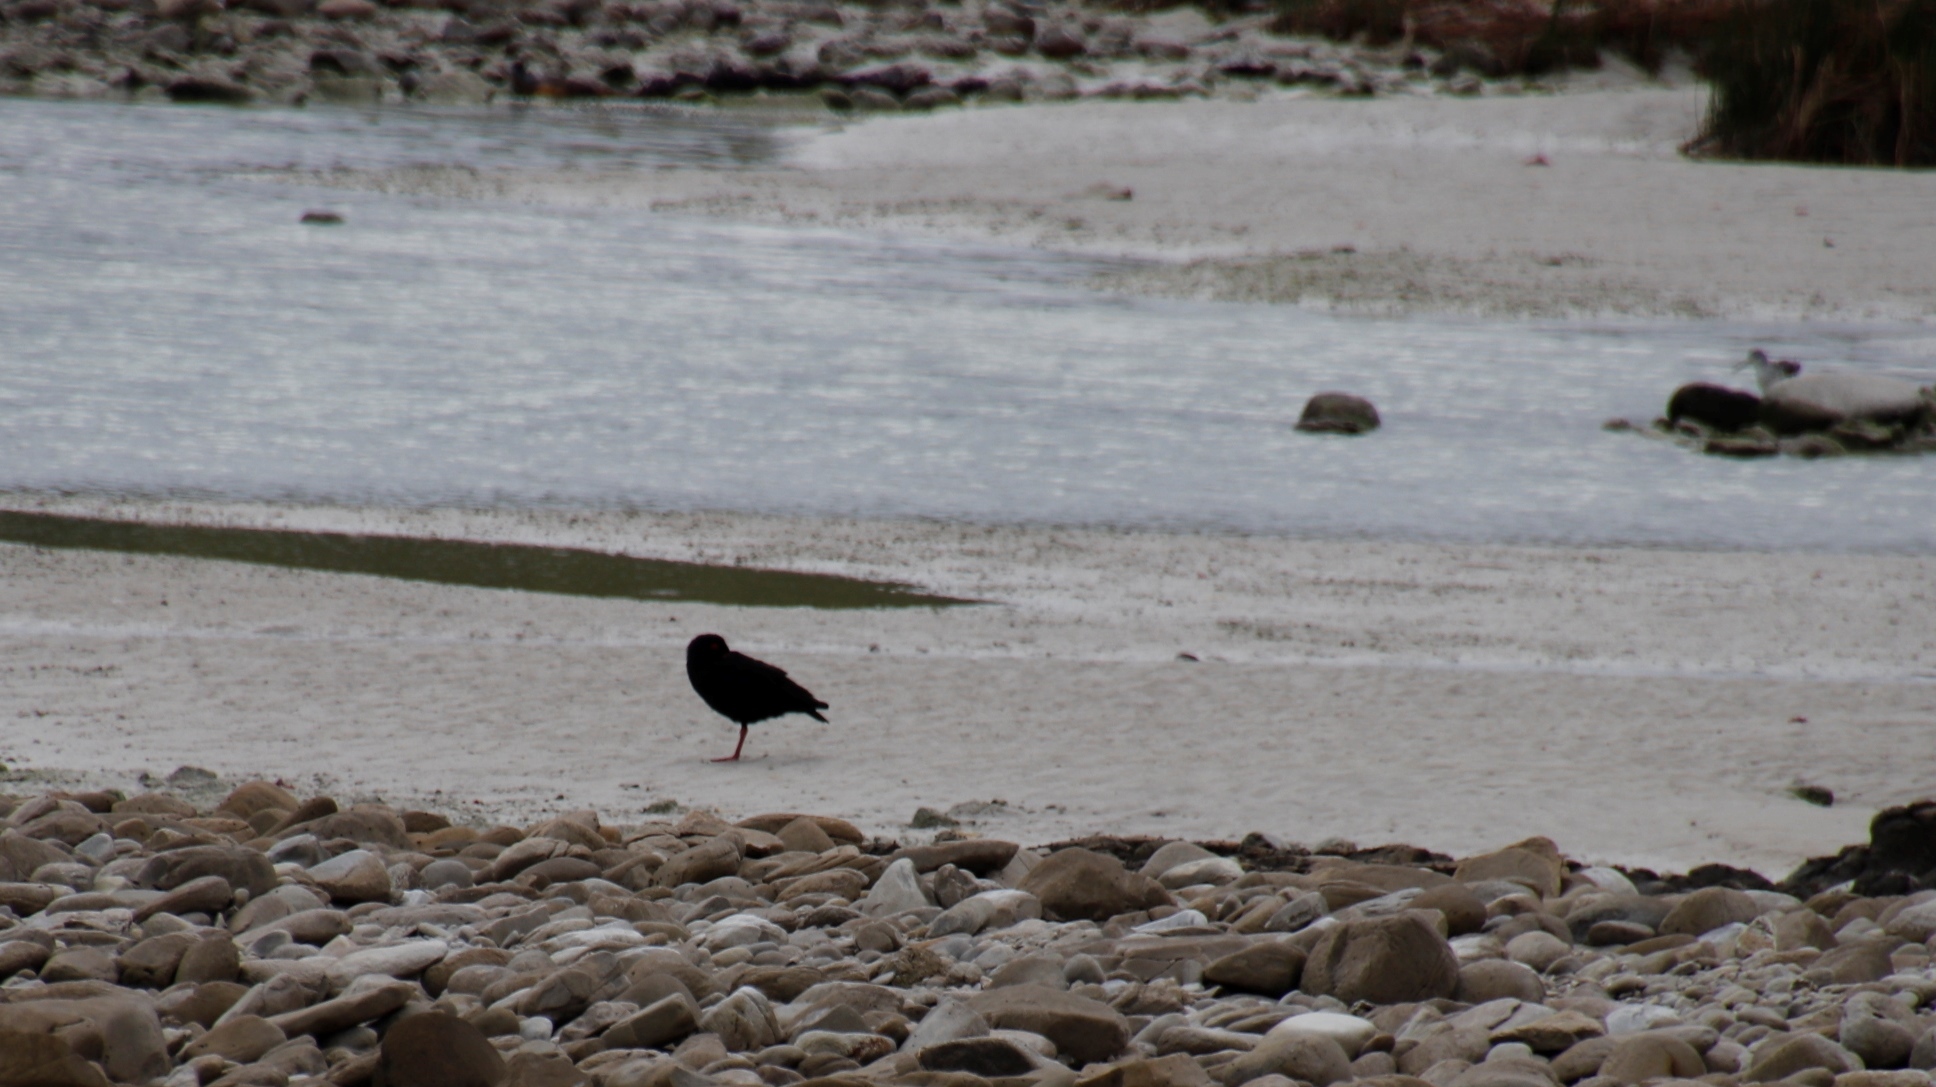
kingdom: Animalia
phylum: Chordata
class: Aves
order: Charadriiformes
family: Haematopodidae
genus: Haematopus
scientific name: Haematopus moquini
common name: African oystercatcher
